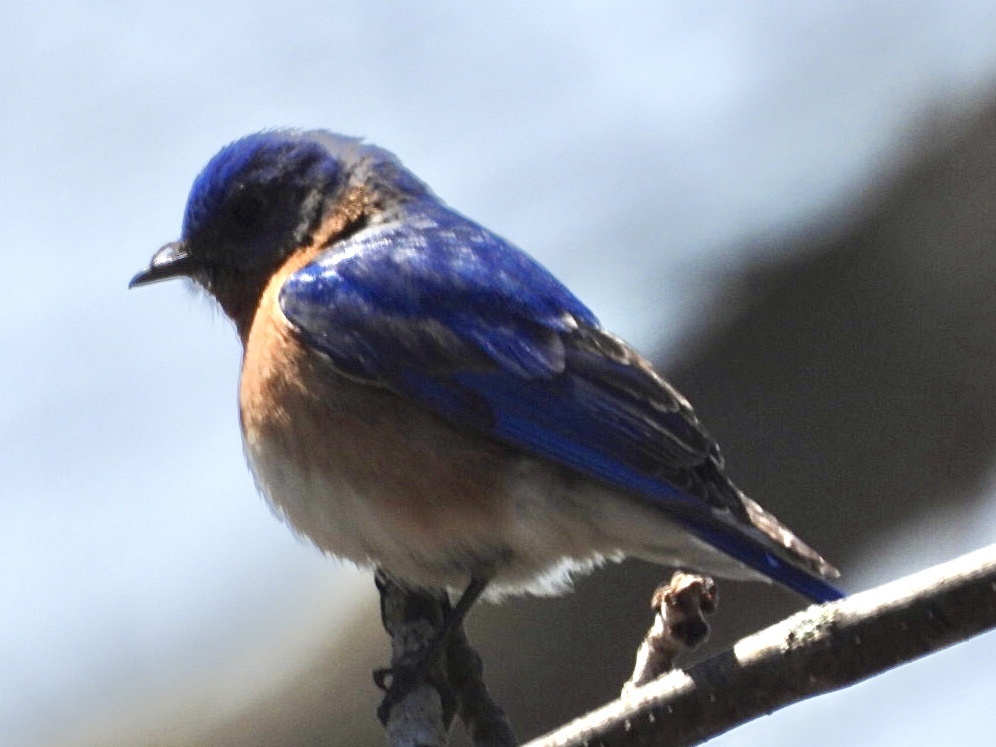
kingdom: Animalia
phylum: Chordata
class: Aves
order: Passeriformes
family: Turdidae
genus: Sialia
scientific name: Sialia sialis
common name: Eastern bluebird
